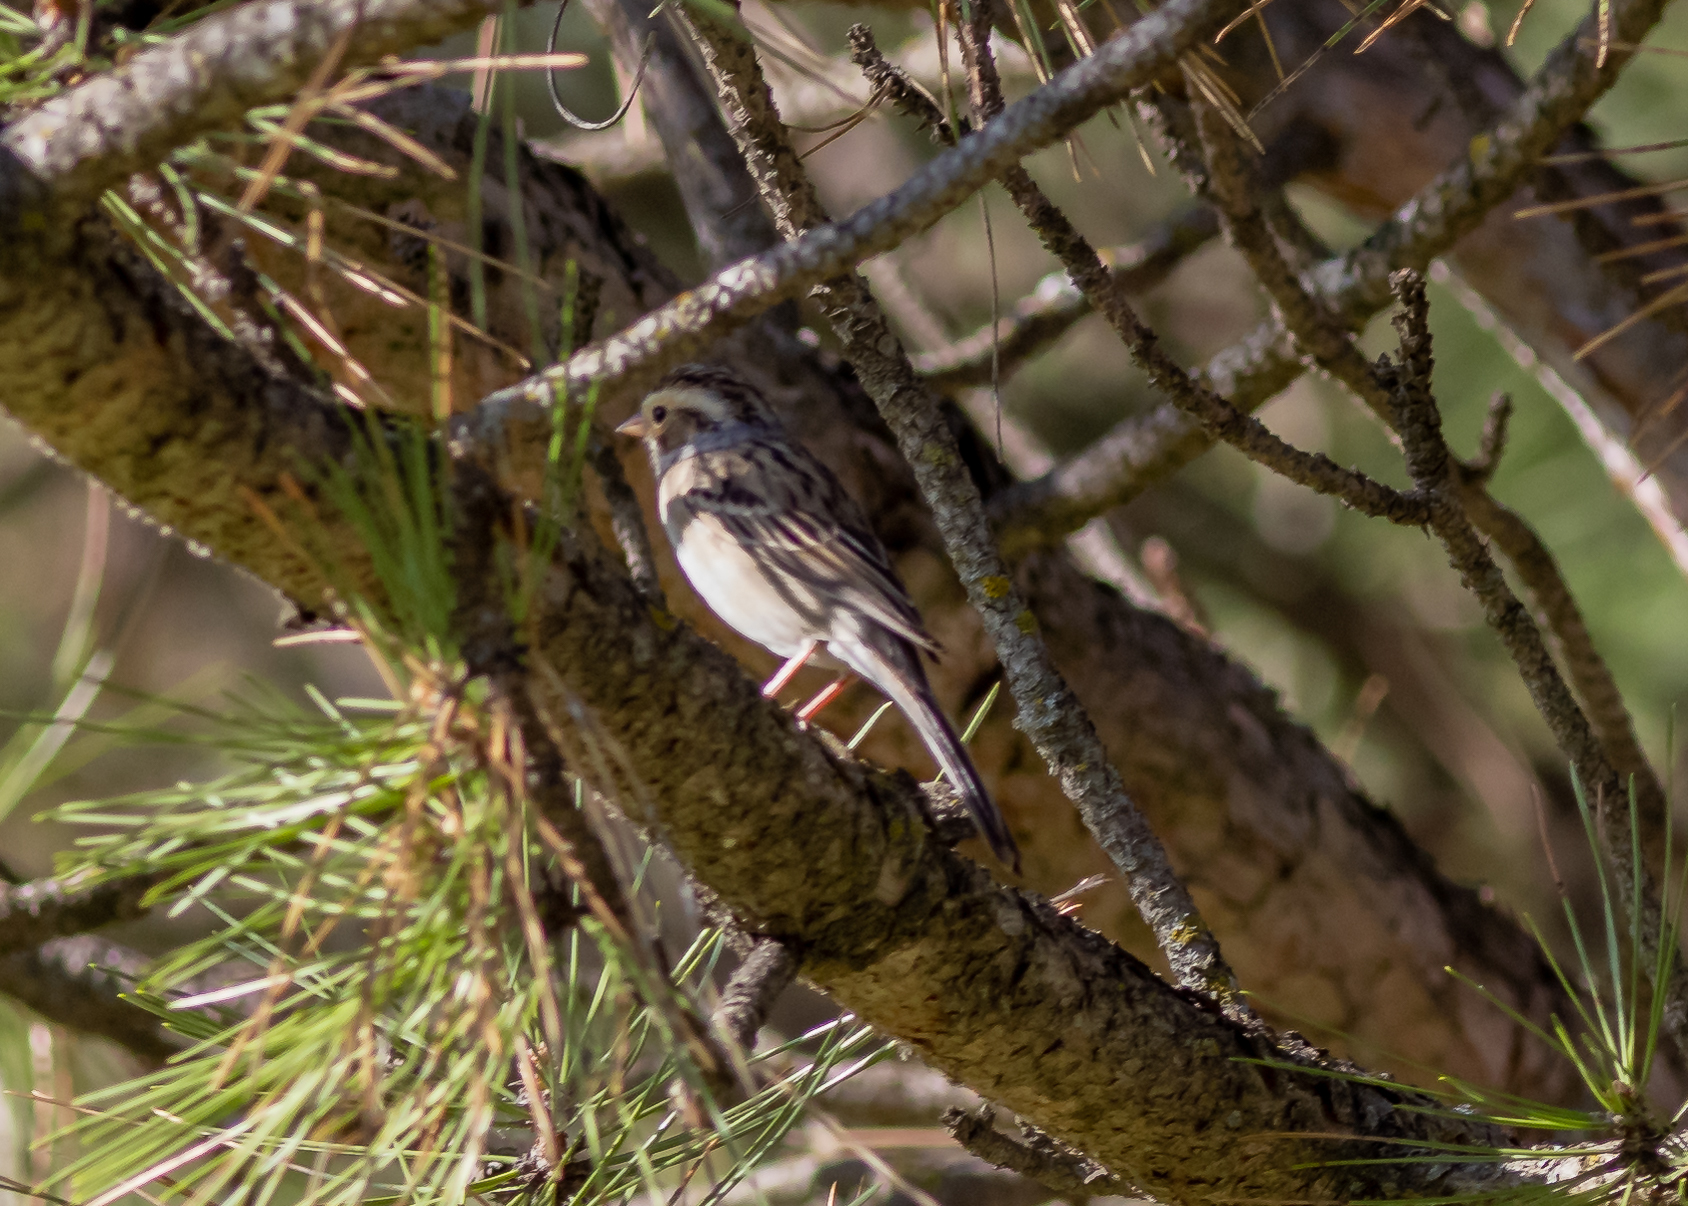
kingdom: Animalia
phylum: Chordata
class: Aves
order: Passeriformes
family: Passerellidae
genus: Spizella
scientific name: Spizella pallida
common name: Clay-colored sparrow
